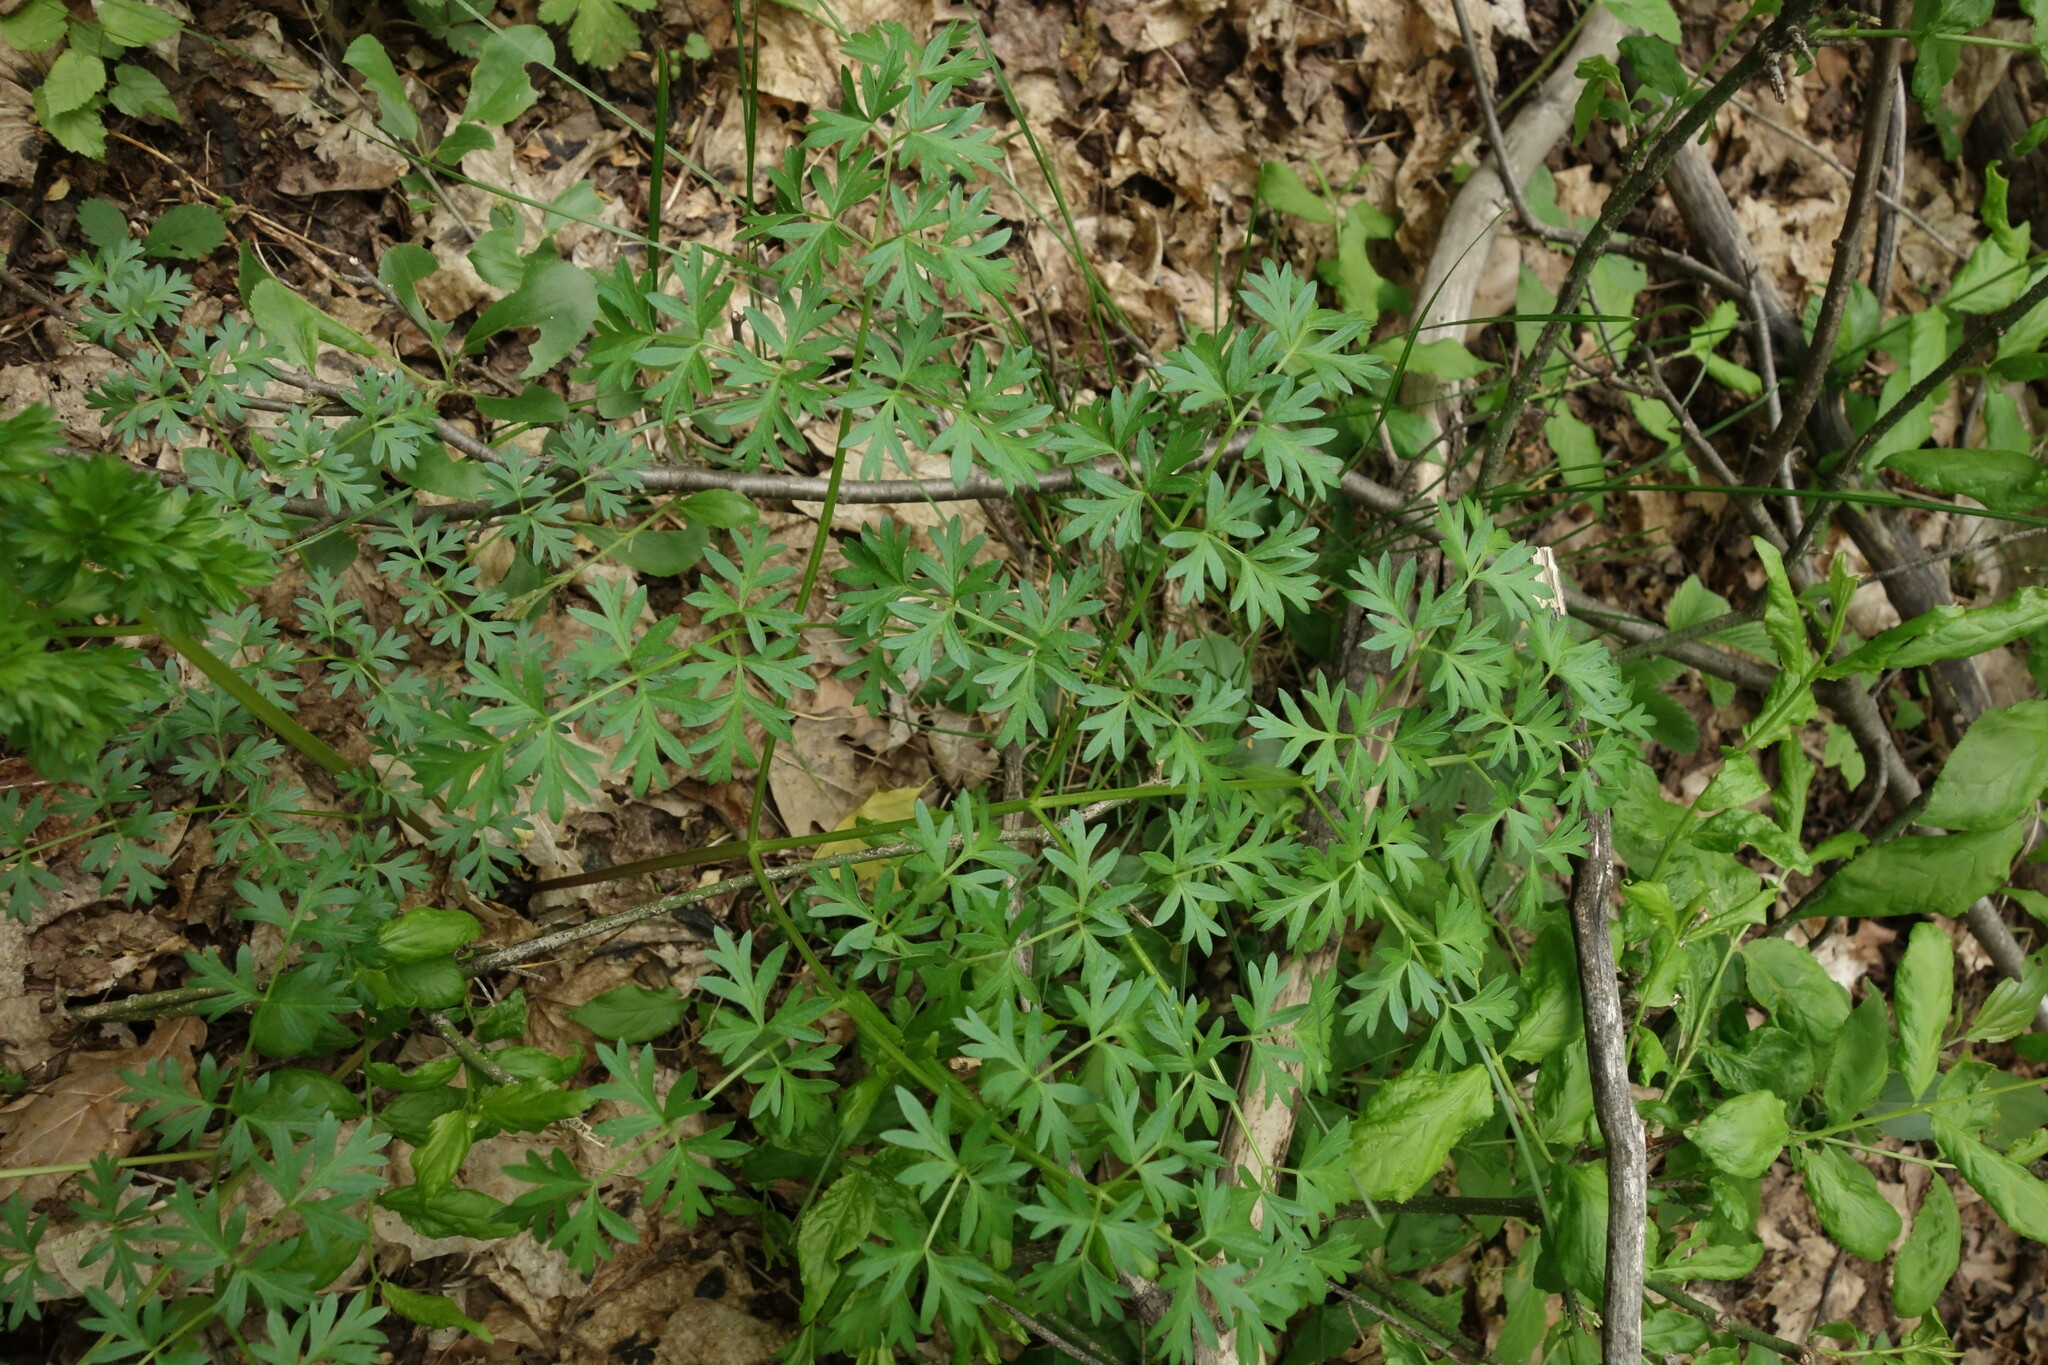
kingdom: Plantae
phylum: Tracheophyta
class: Magnoliopsida
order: Apiales
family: Apiaceae
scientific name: Apiaceae
